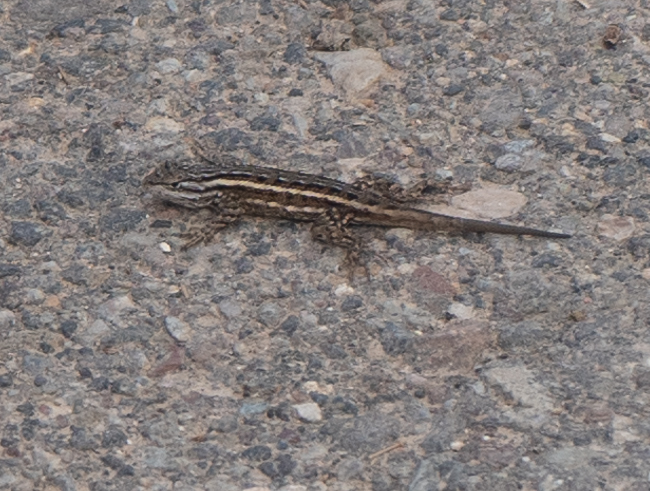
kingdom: Animalia
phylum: Chordata
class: Squamata
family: Phrynosomatidae
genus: Sceloporus
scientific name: Sceloporus tristichus
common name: Plateau fence lizard
